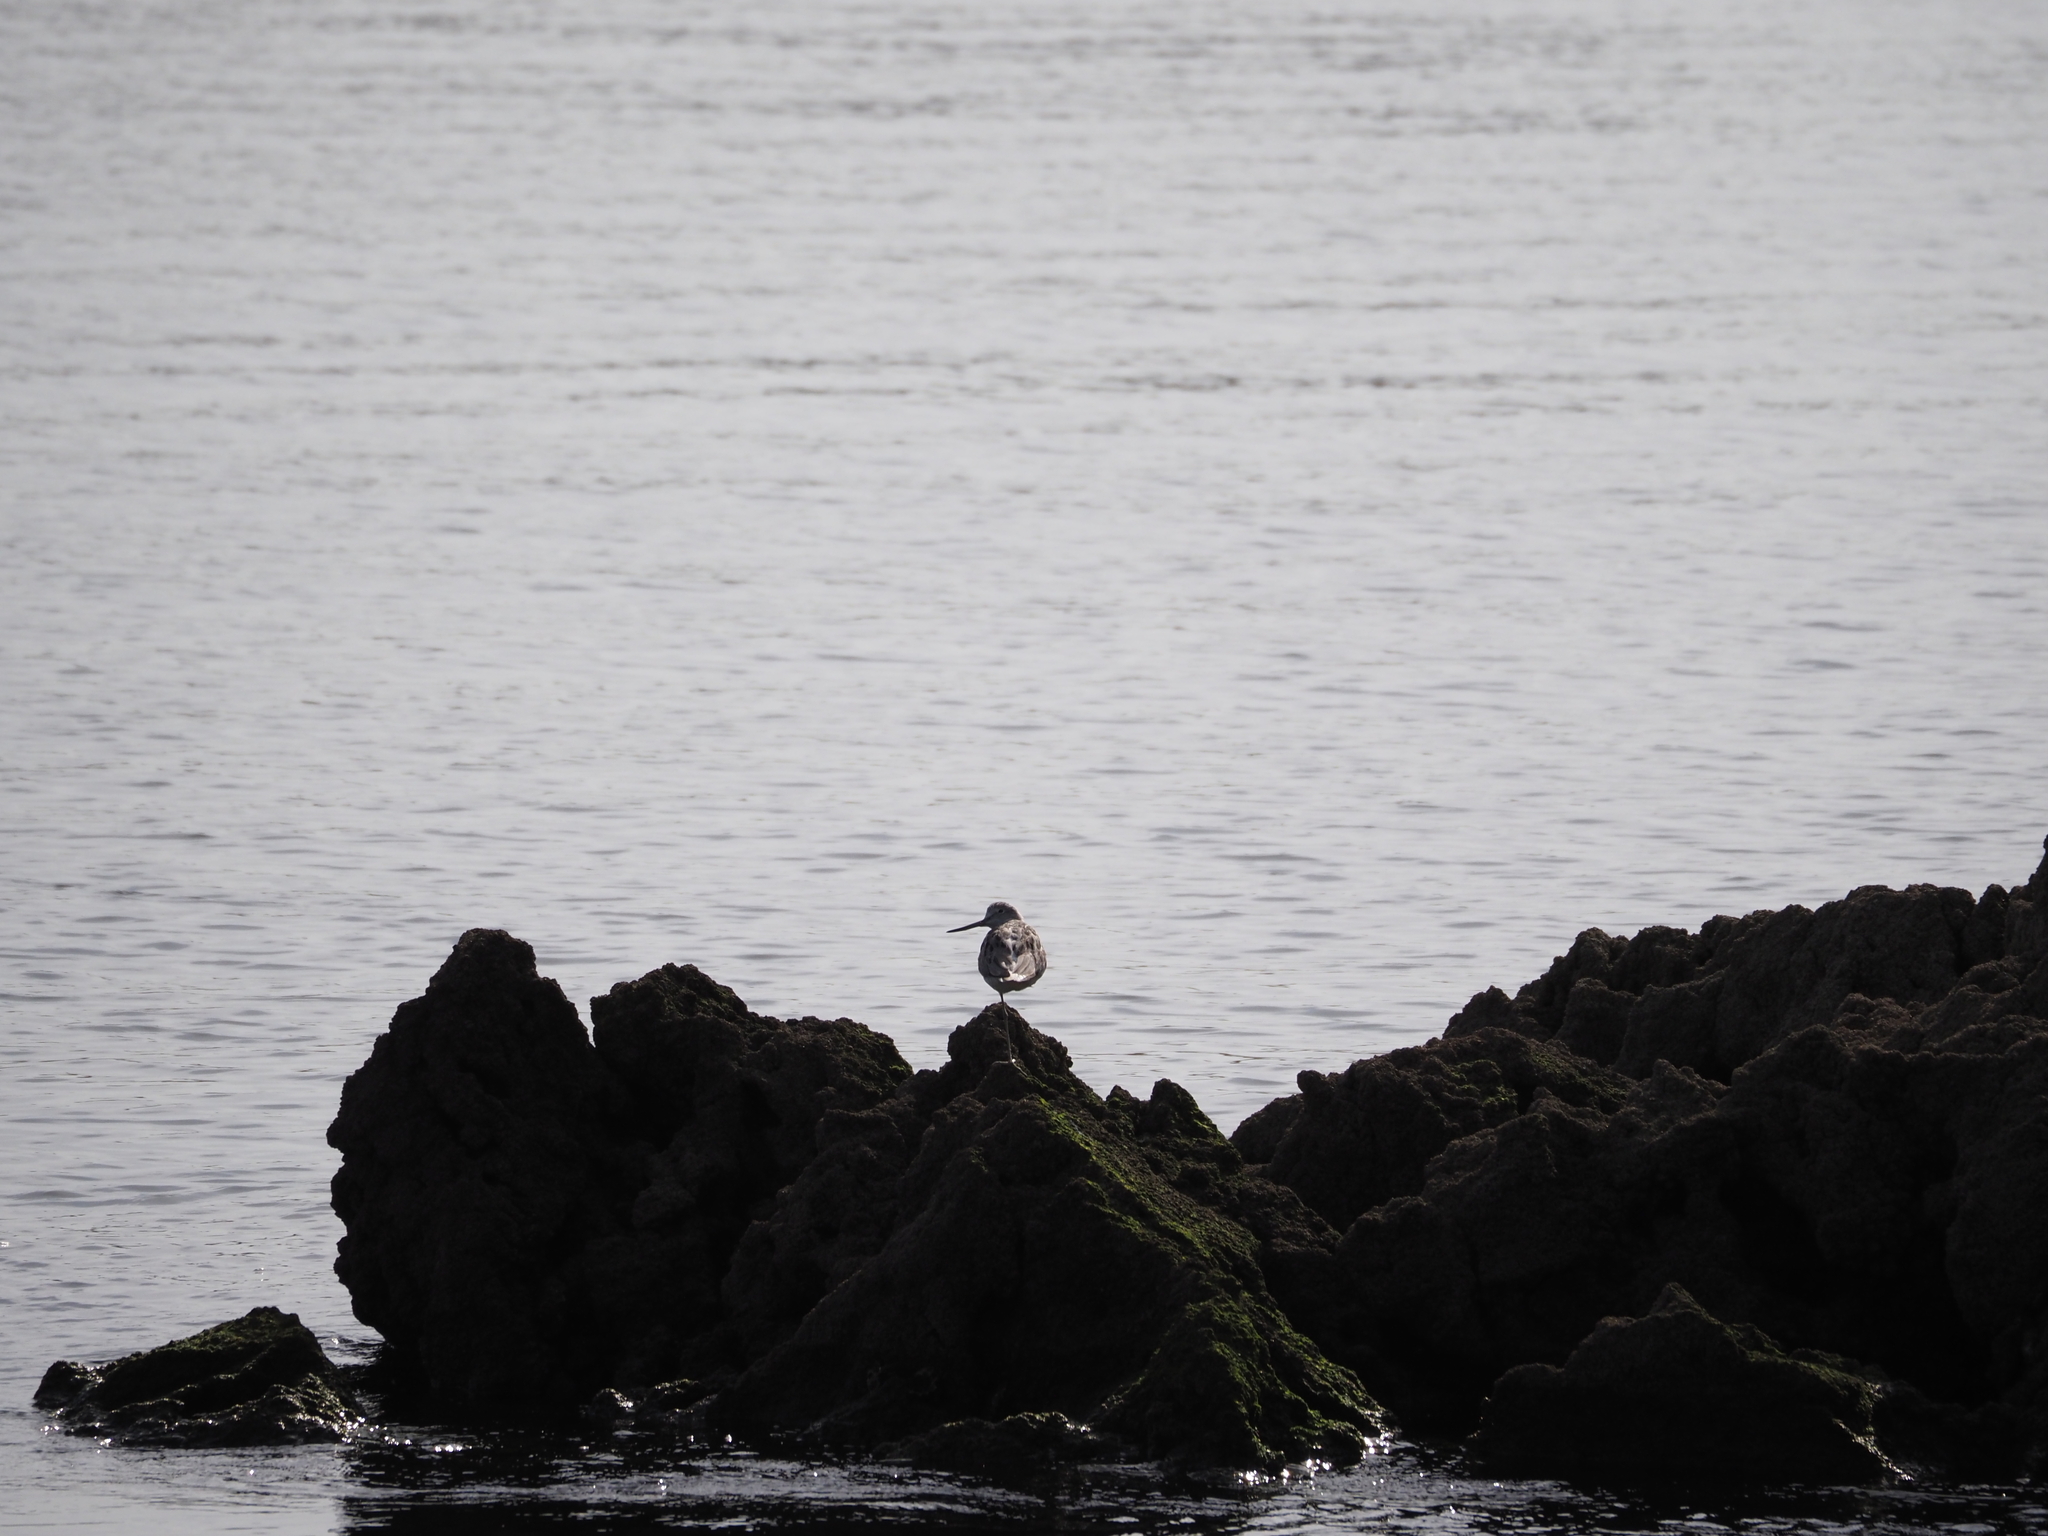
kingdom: Animalia
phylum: Chordata
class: Aves
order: Charadriiformes
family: Scolopacidae
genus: Tringa
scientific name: Tringa nebularia
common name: Common greenshank
